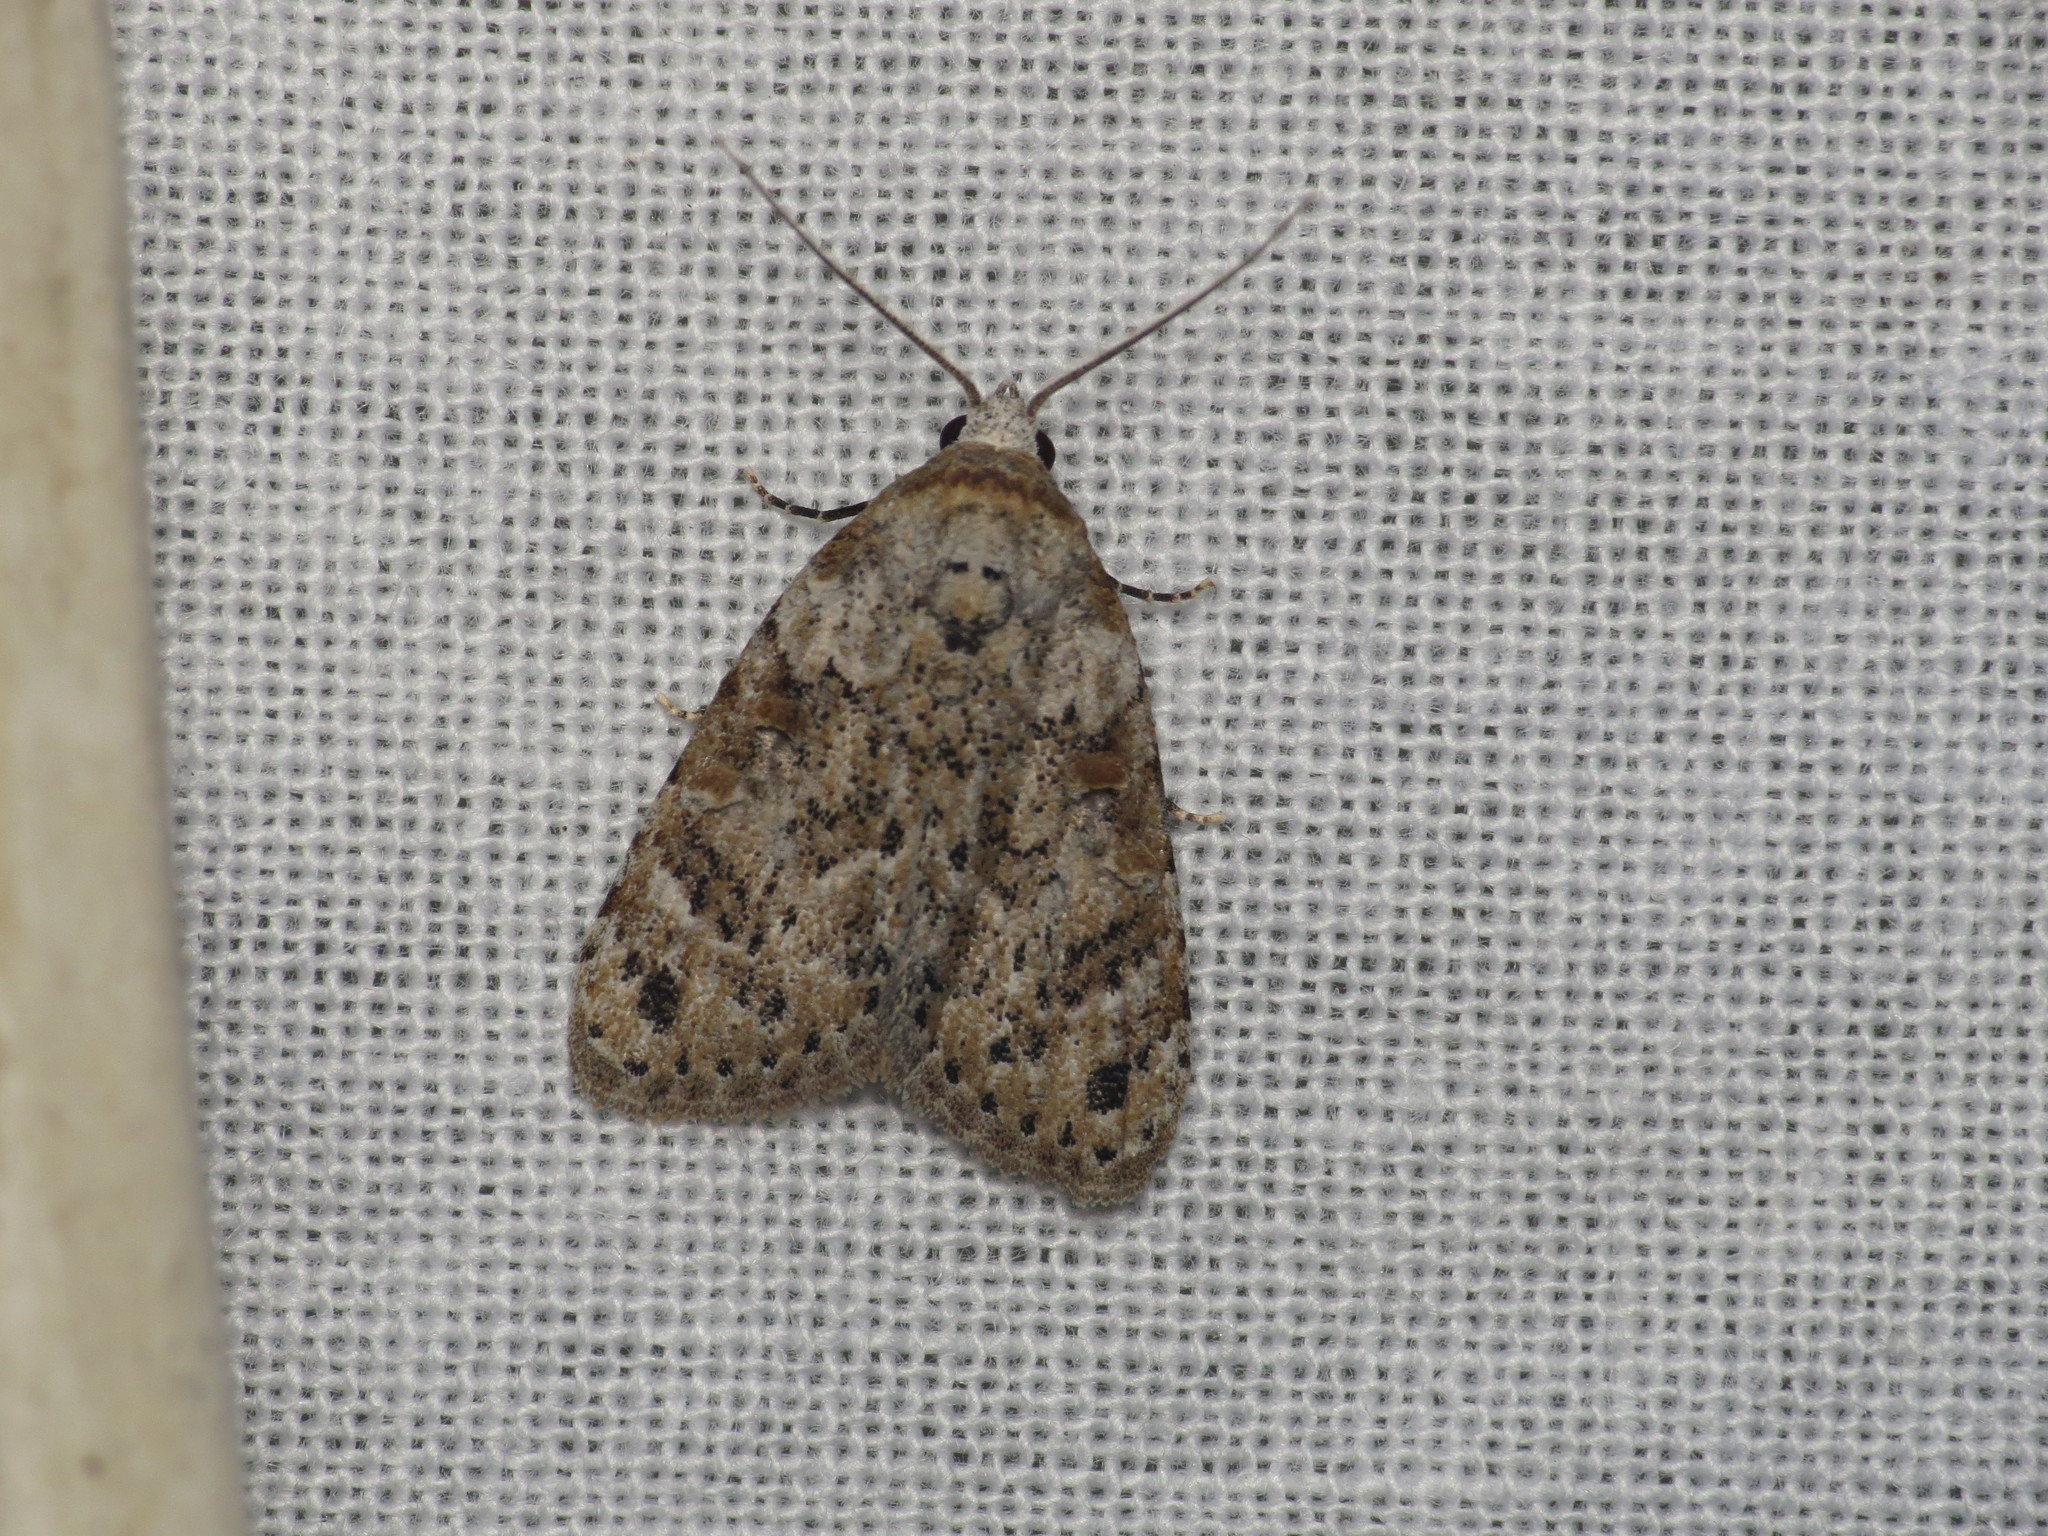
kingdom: Animalia
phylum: Arthropoda
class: Insecta
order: Lepidoptera
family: Nolidae
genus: Nola
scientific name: Nola epicentra
